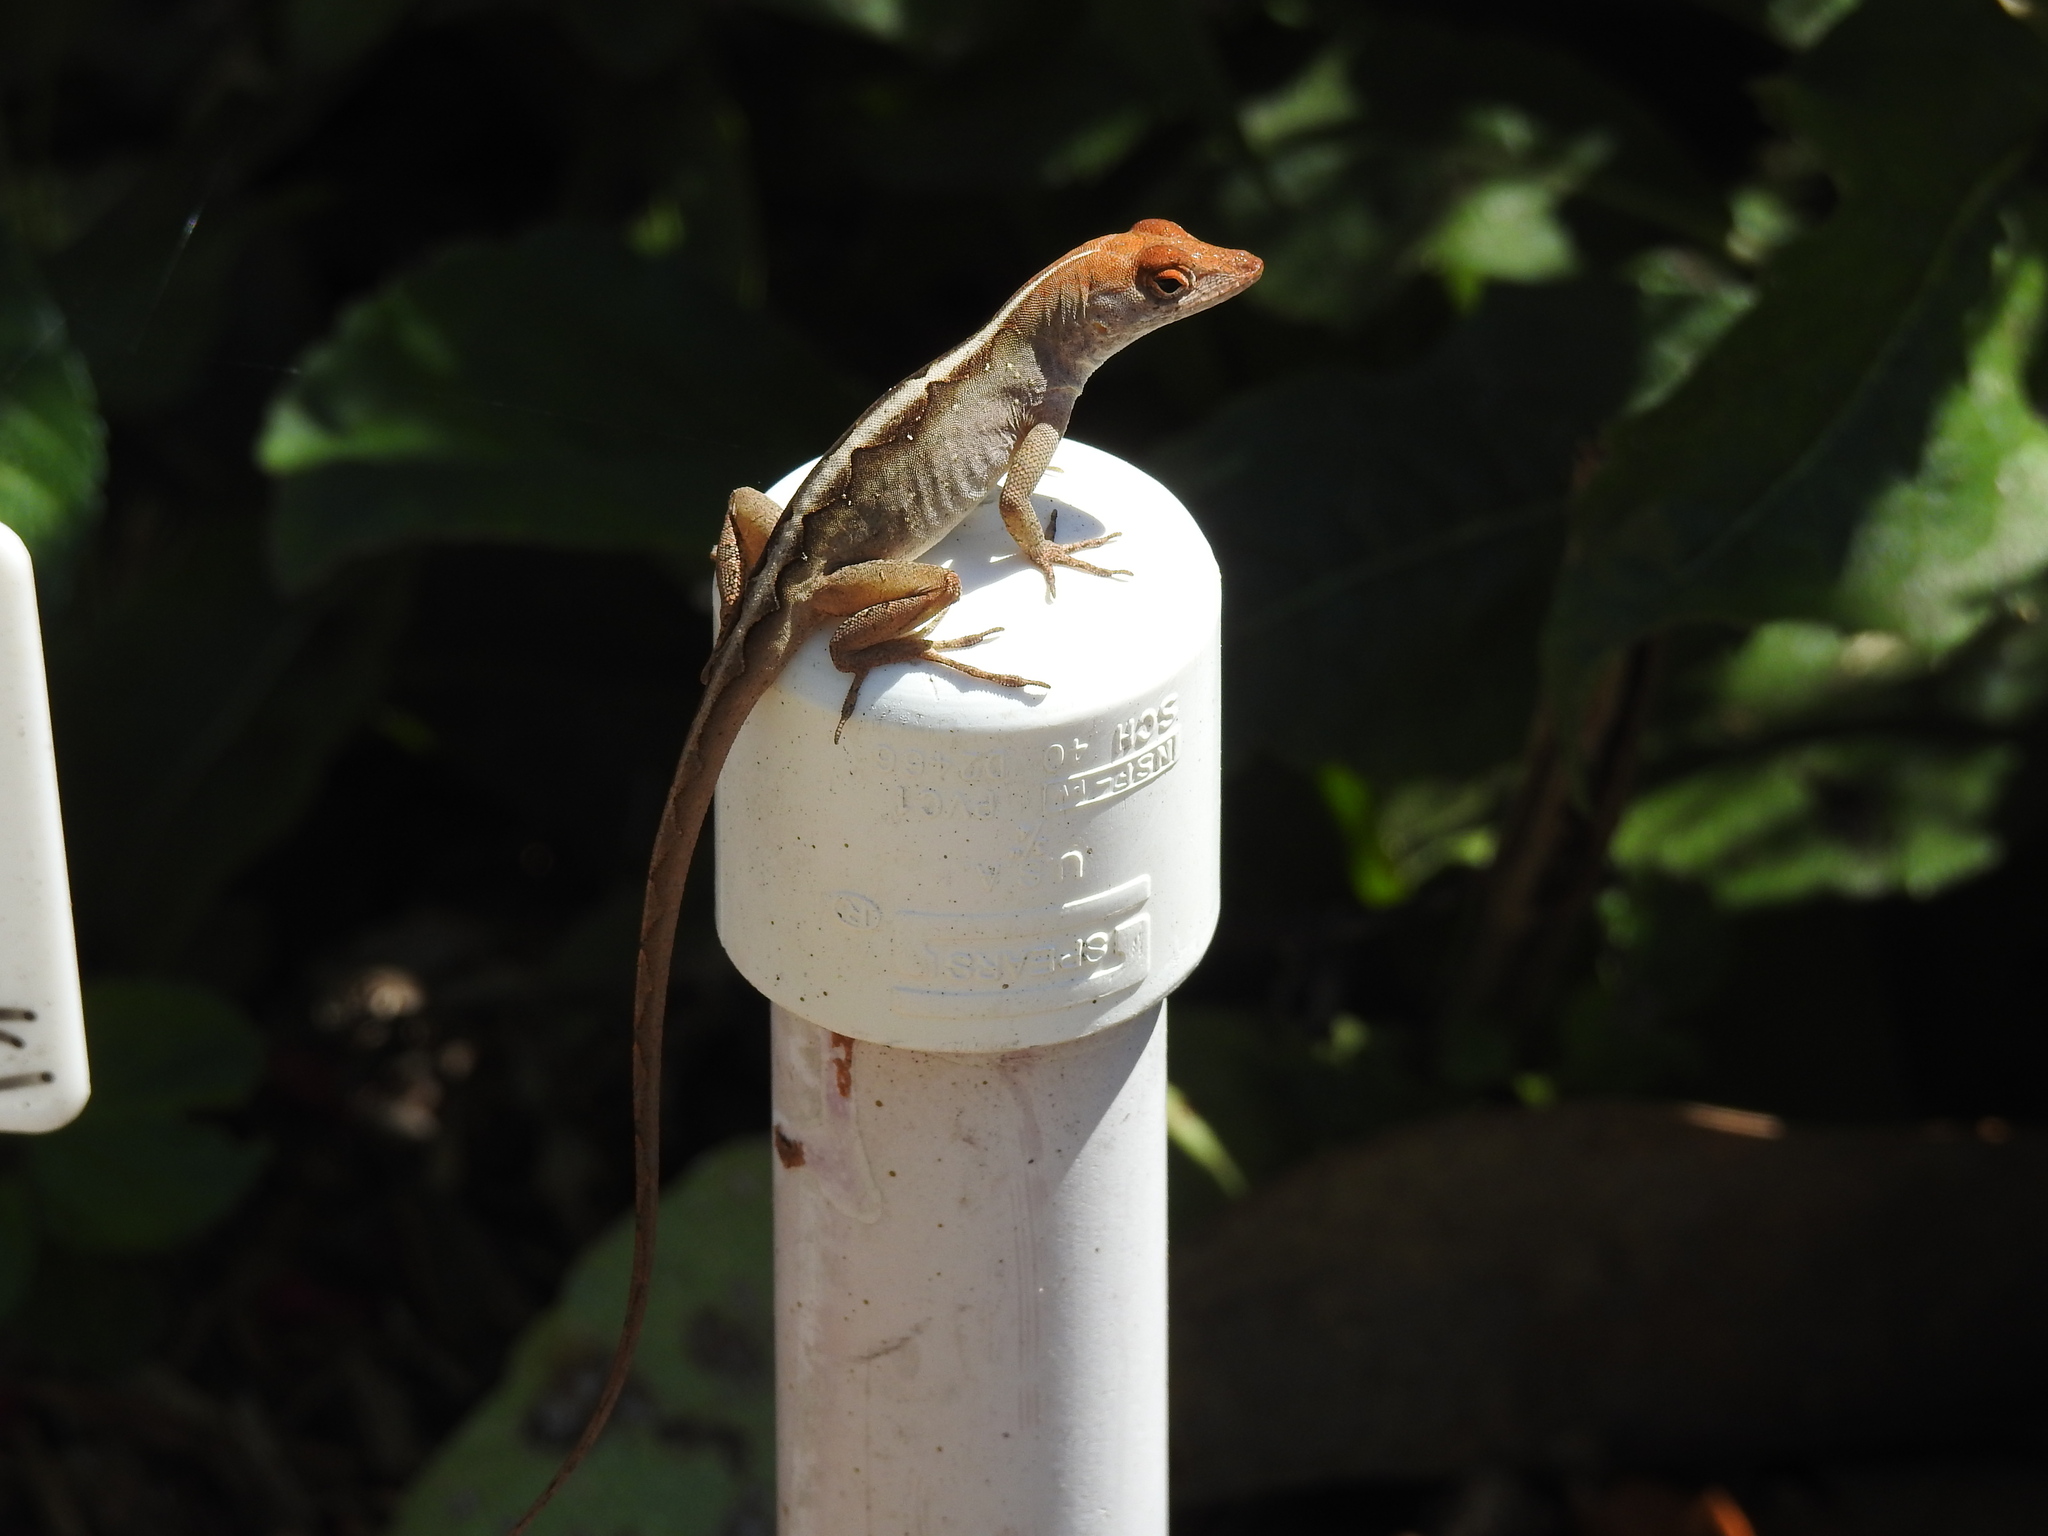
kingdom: Animalia
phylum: Chordata
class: Squamata
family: Dactyloidae
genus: Anolis
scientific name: Anolis sagrei
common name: Brown anole
